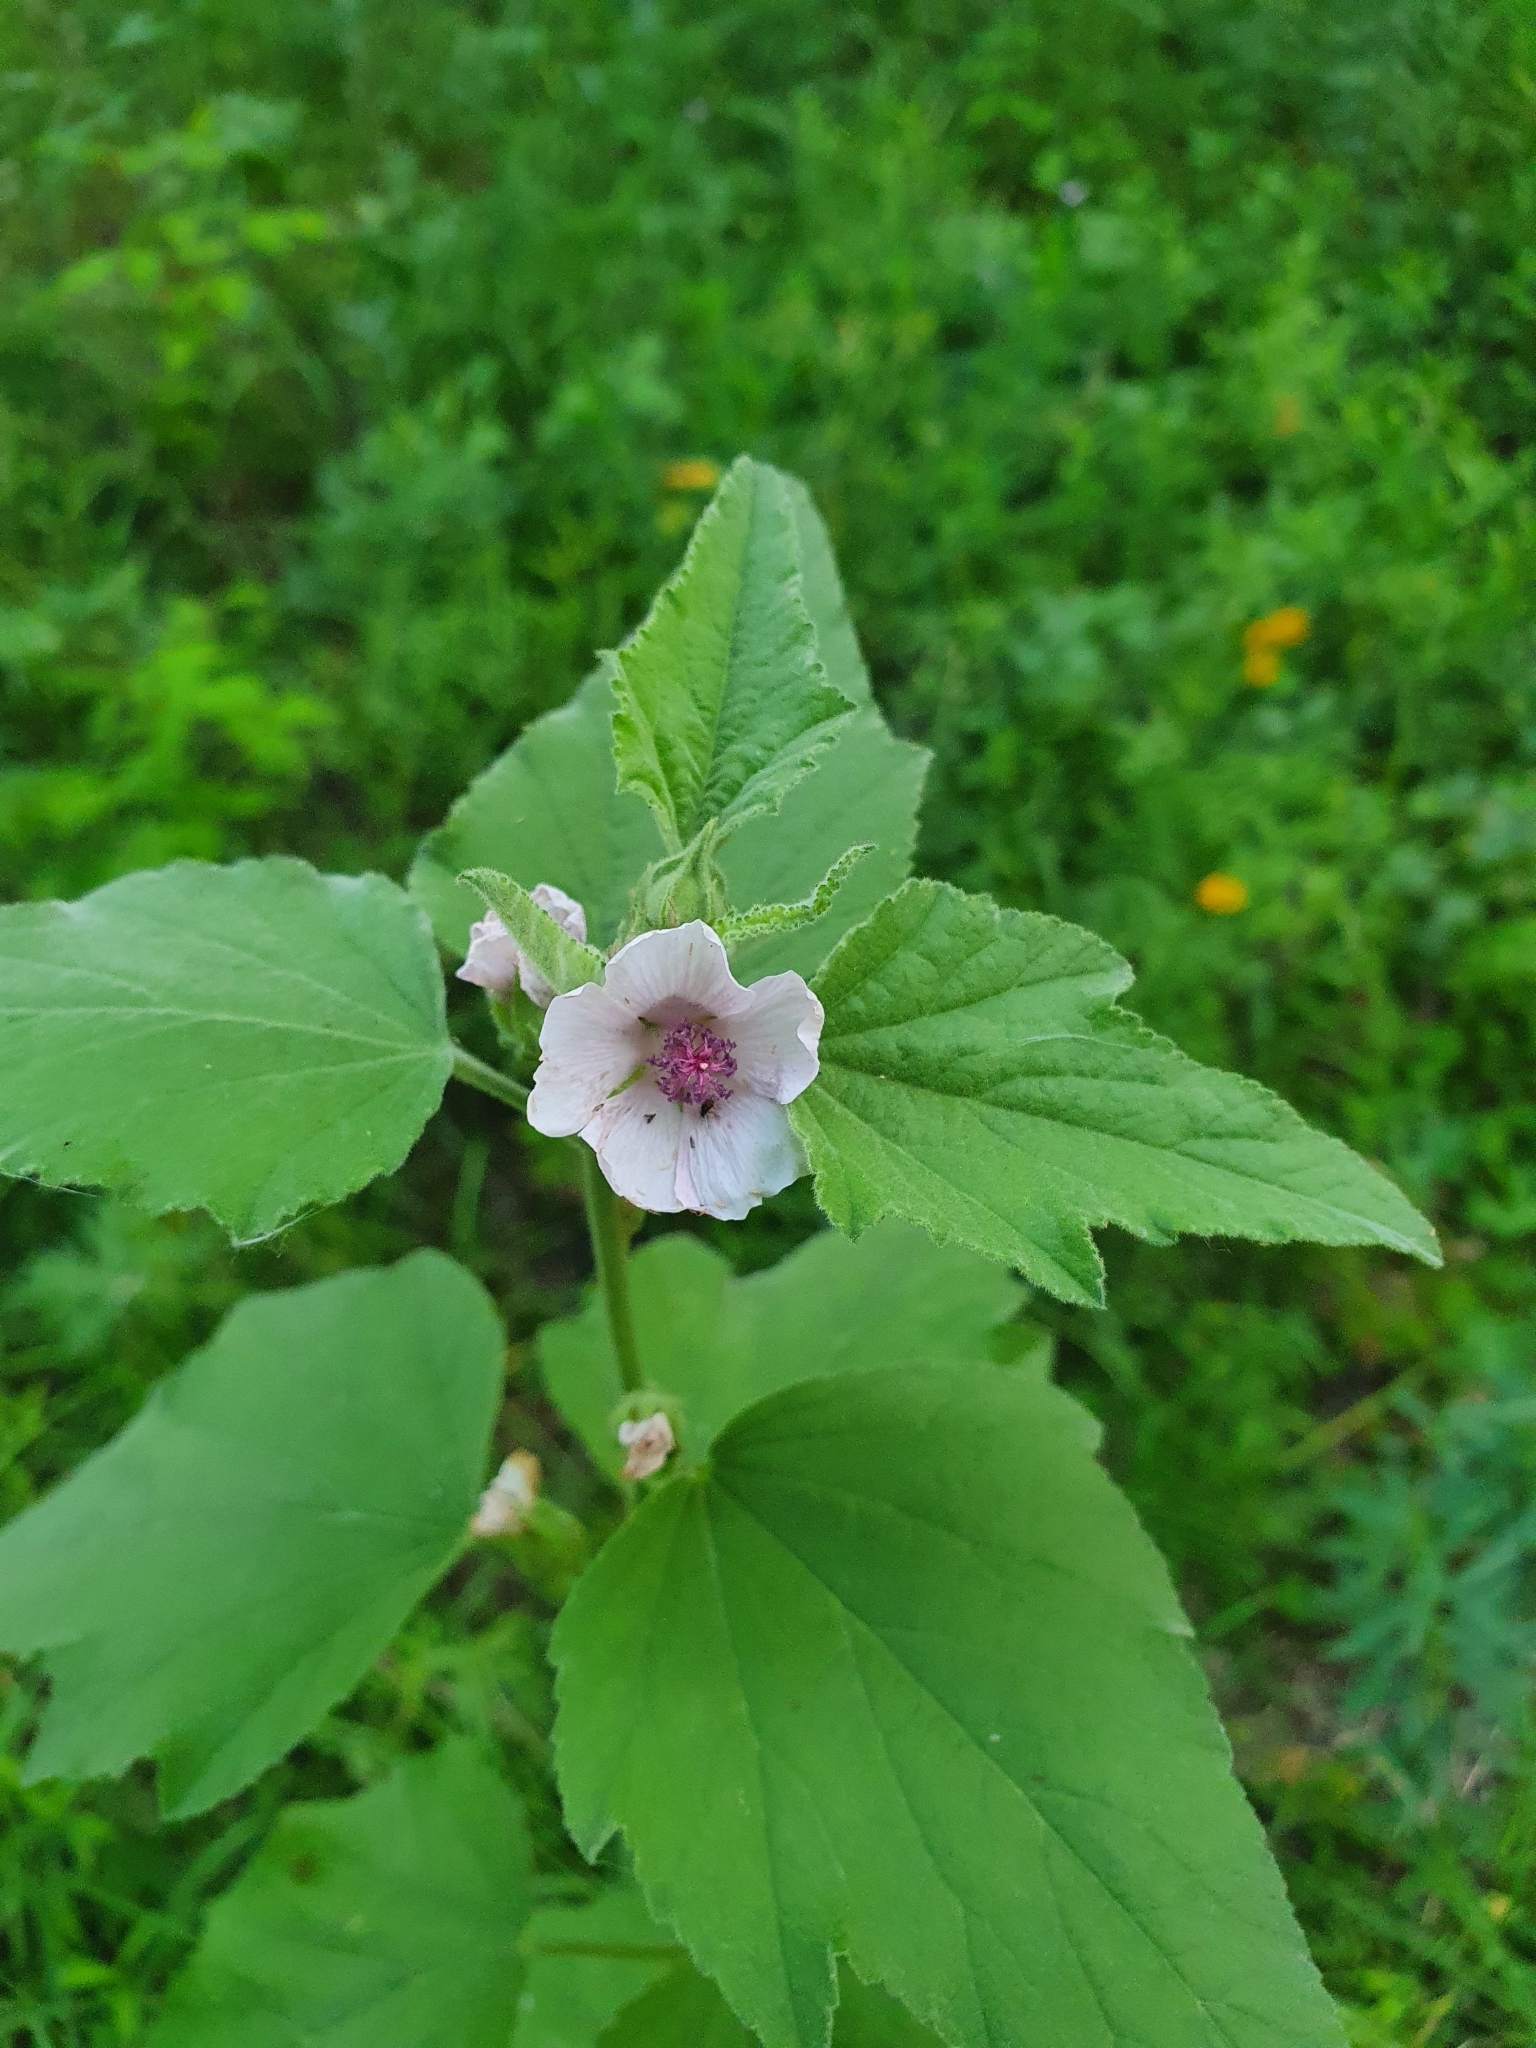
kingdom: Plantae
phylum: Tracheophyta
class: Magnoliopsida
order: Malvales
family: Malvaceae
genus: Althaea
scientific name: Althaea officinalis
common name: Marsh-mallow
